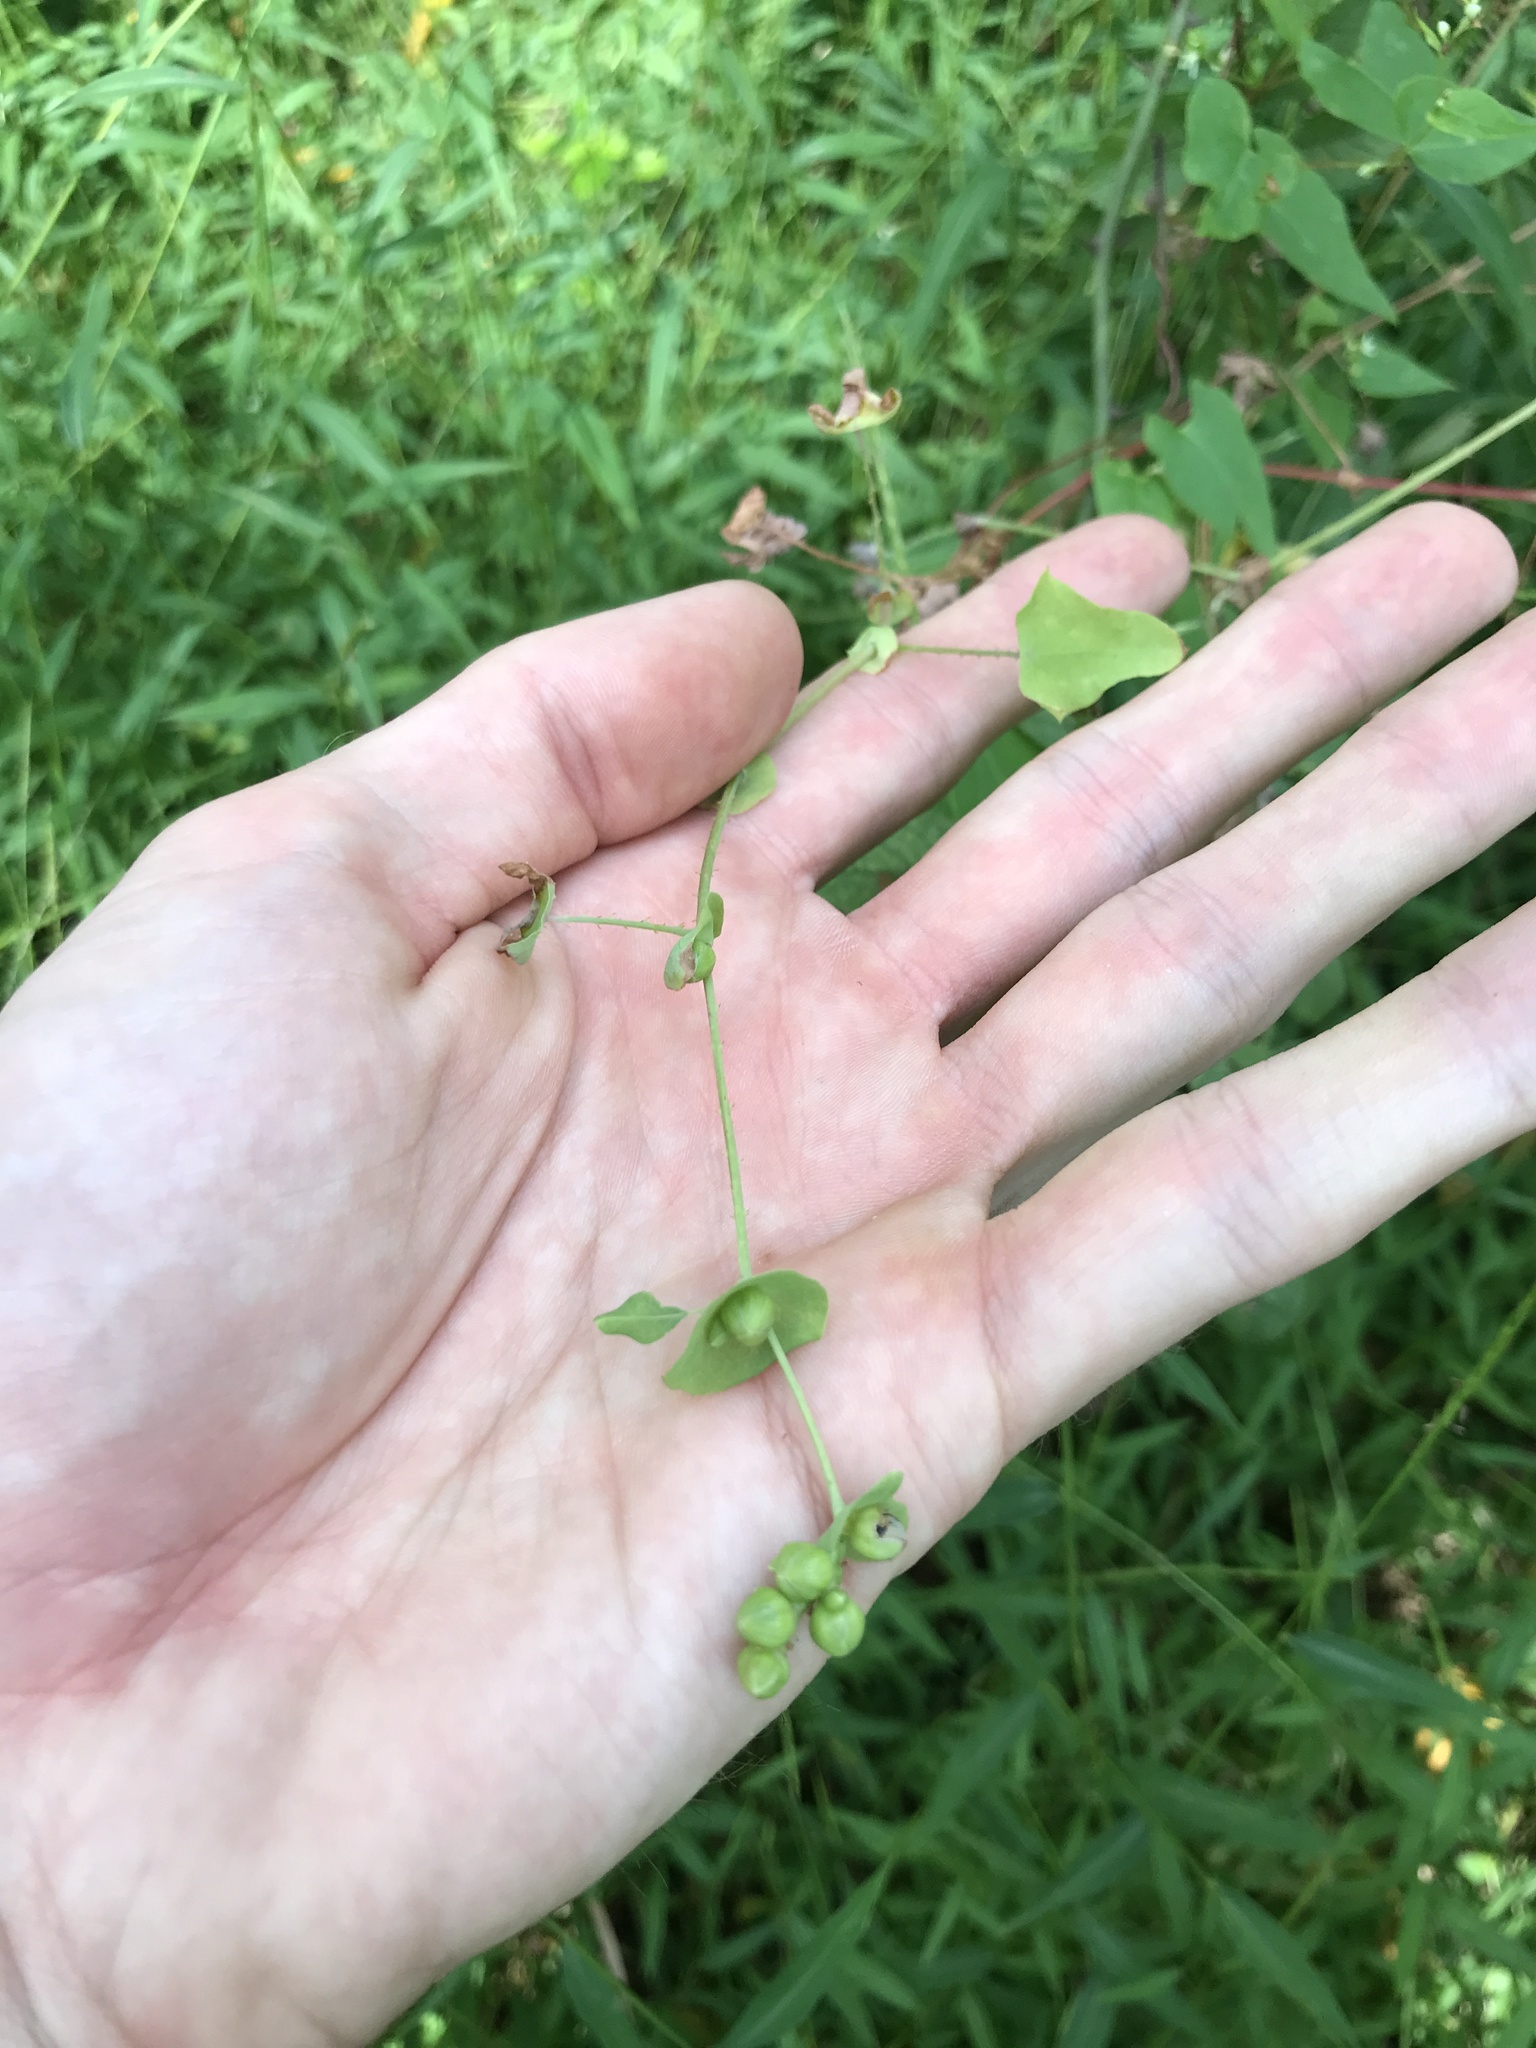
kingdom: Plantae
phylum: Tracheophyta
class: Magnoliopsida
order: Caryophyllales
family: Polygonaceae
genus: Persicaria
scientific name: Persicaria perfoliata
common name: Asiatic tearthumb
